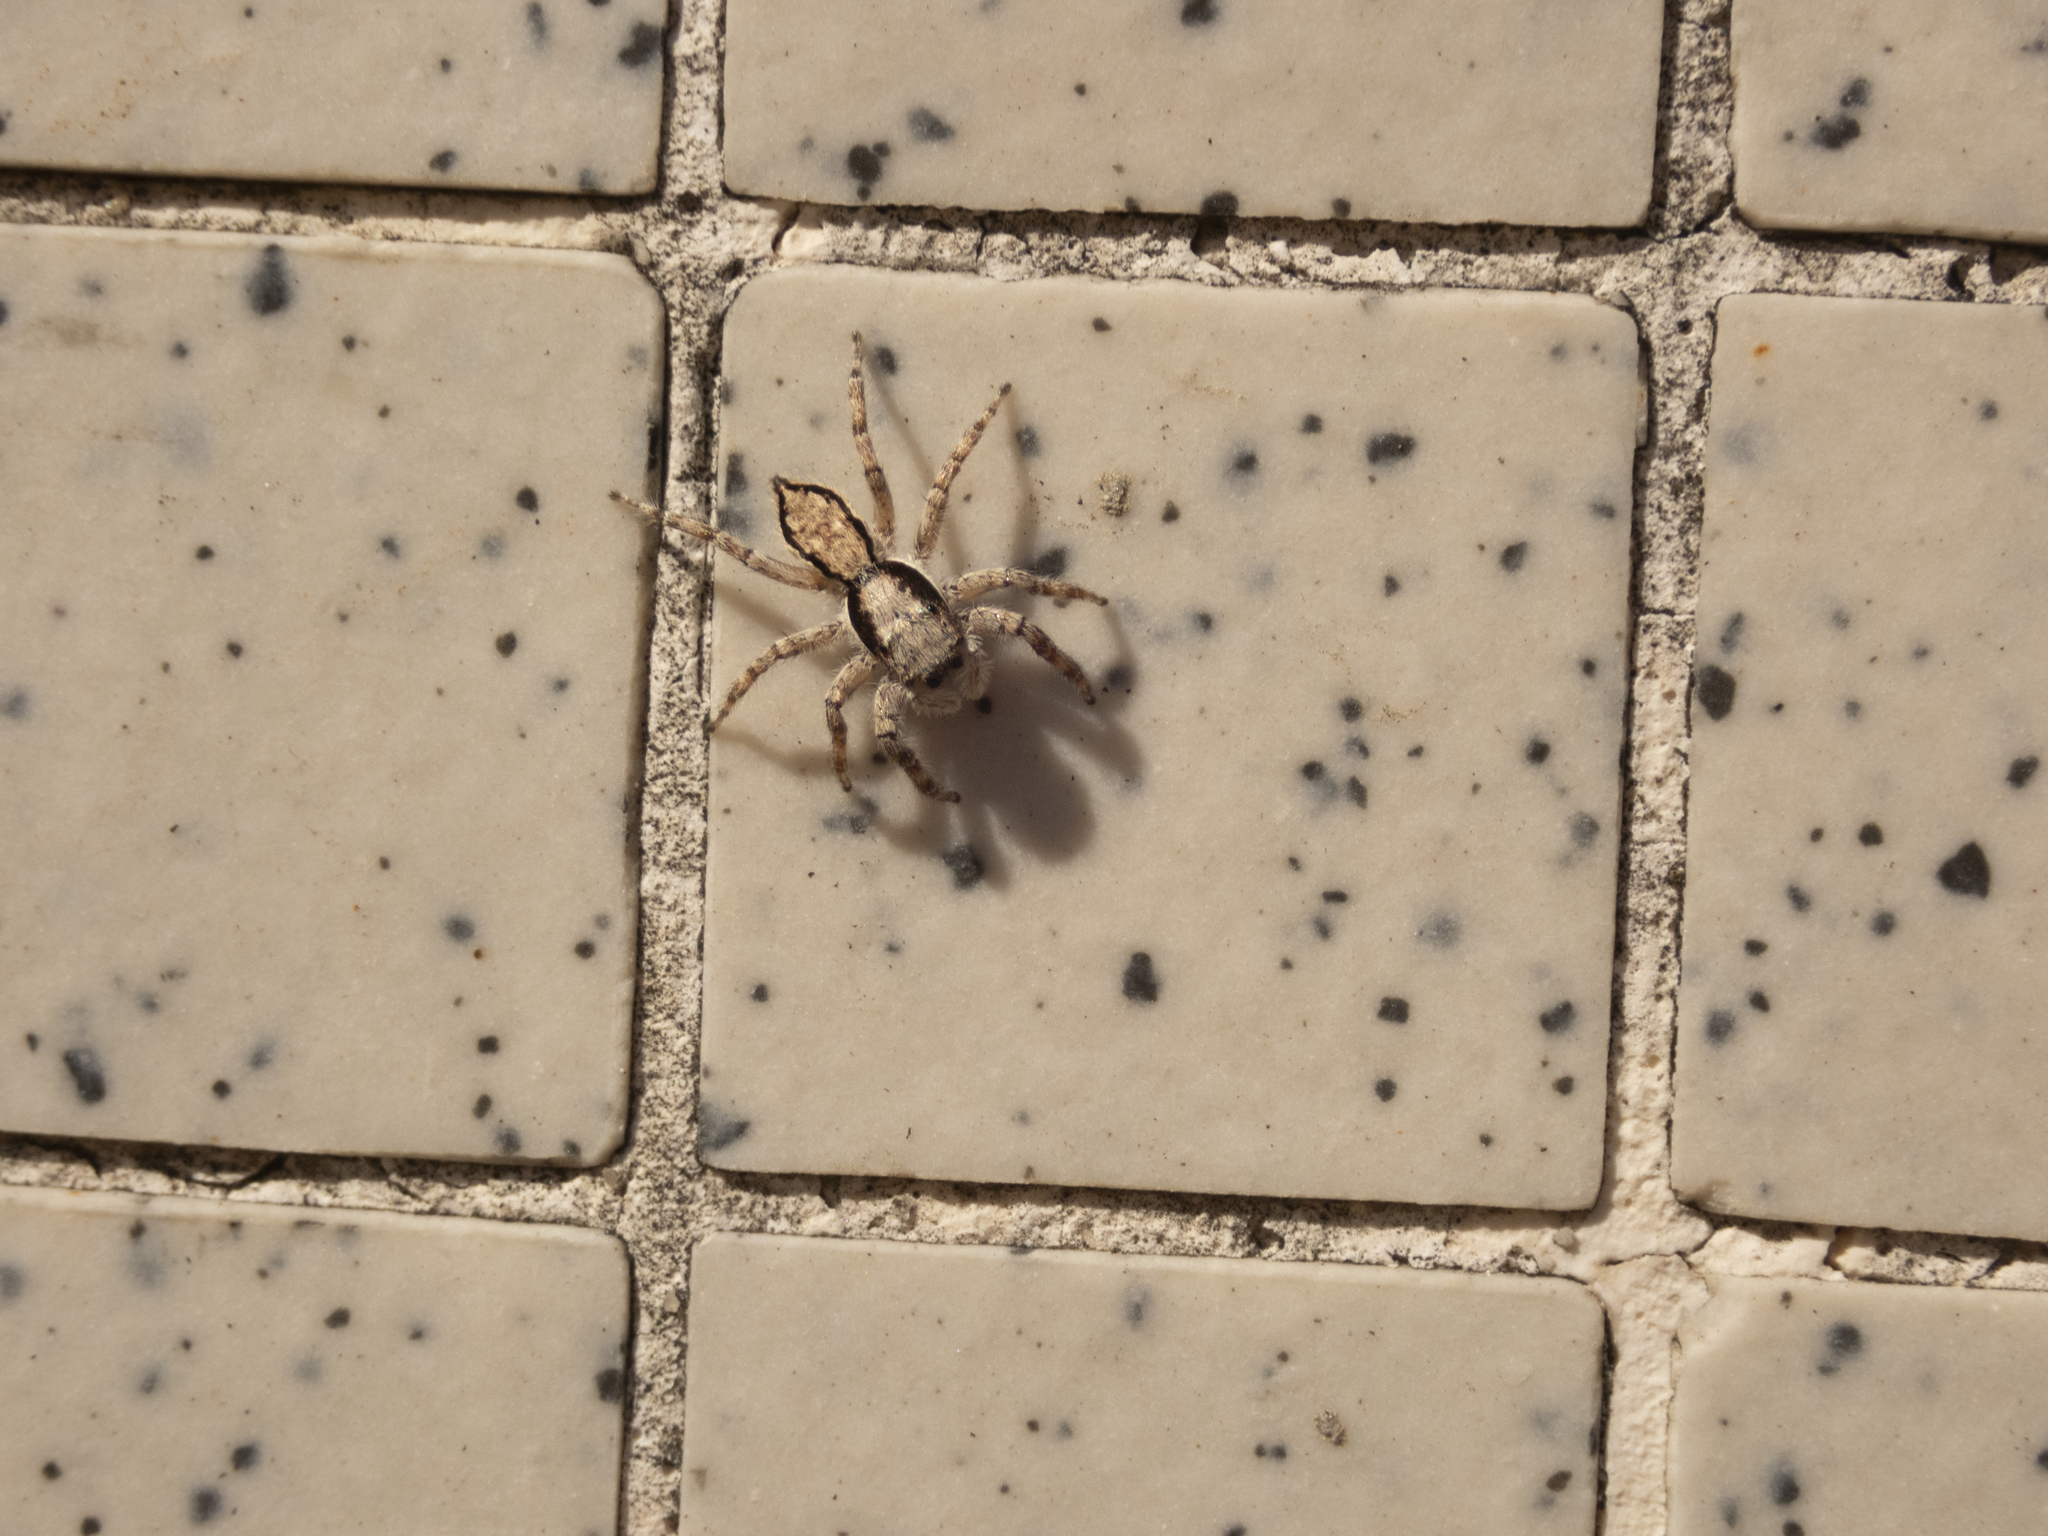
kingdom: Animalia
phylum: Arthropoda
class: Arachnida
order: Araneae
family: Salticidae
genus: Menemerus
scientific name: Menemerus bivittatus
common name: Gray wall jumper
